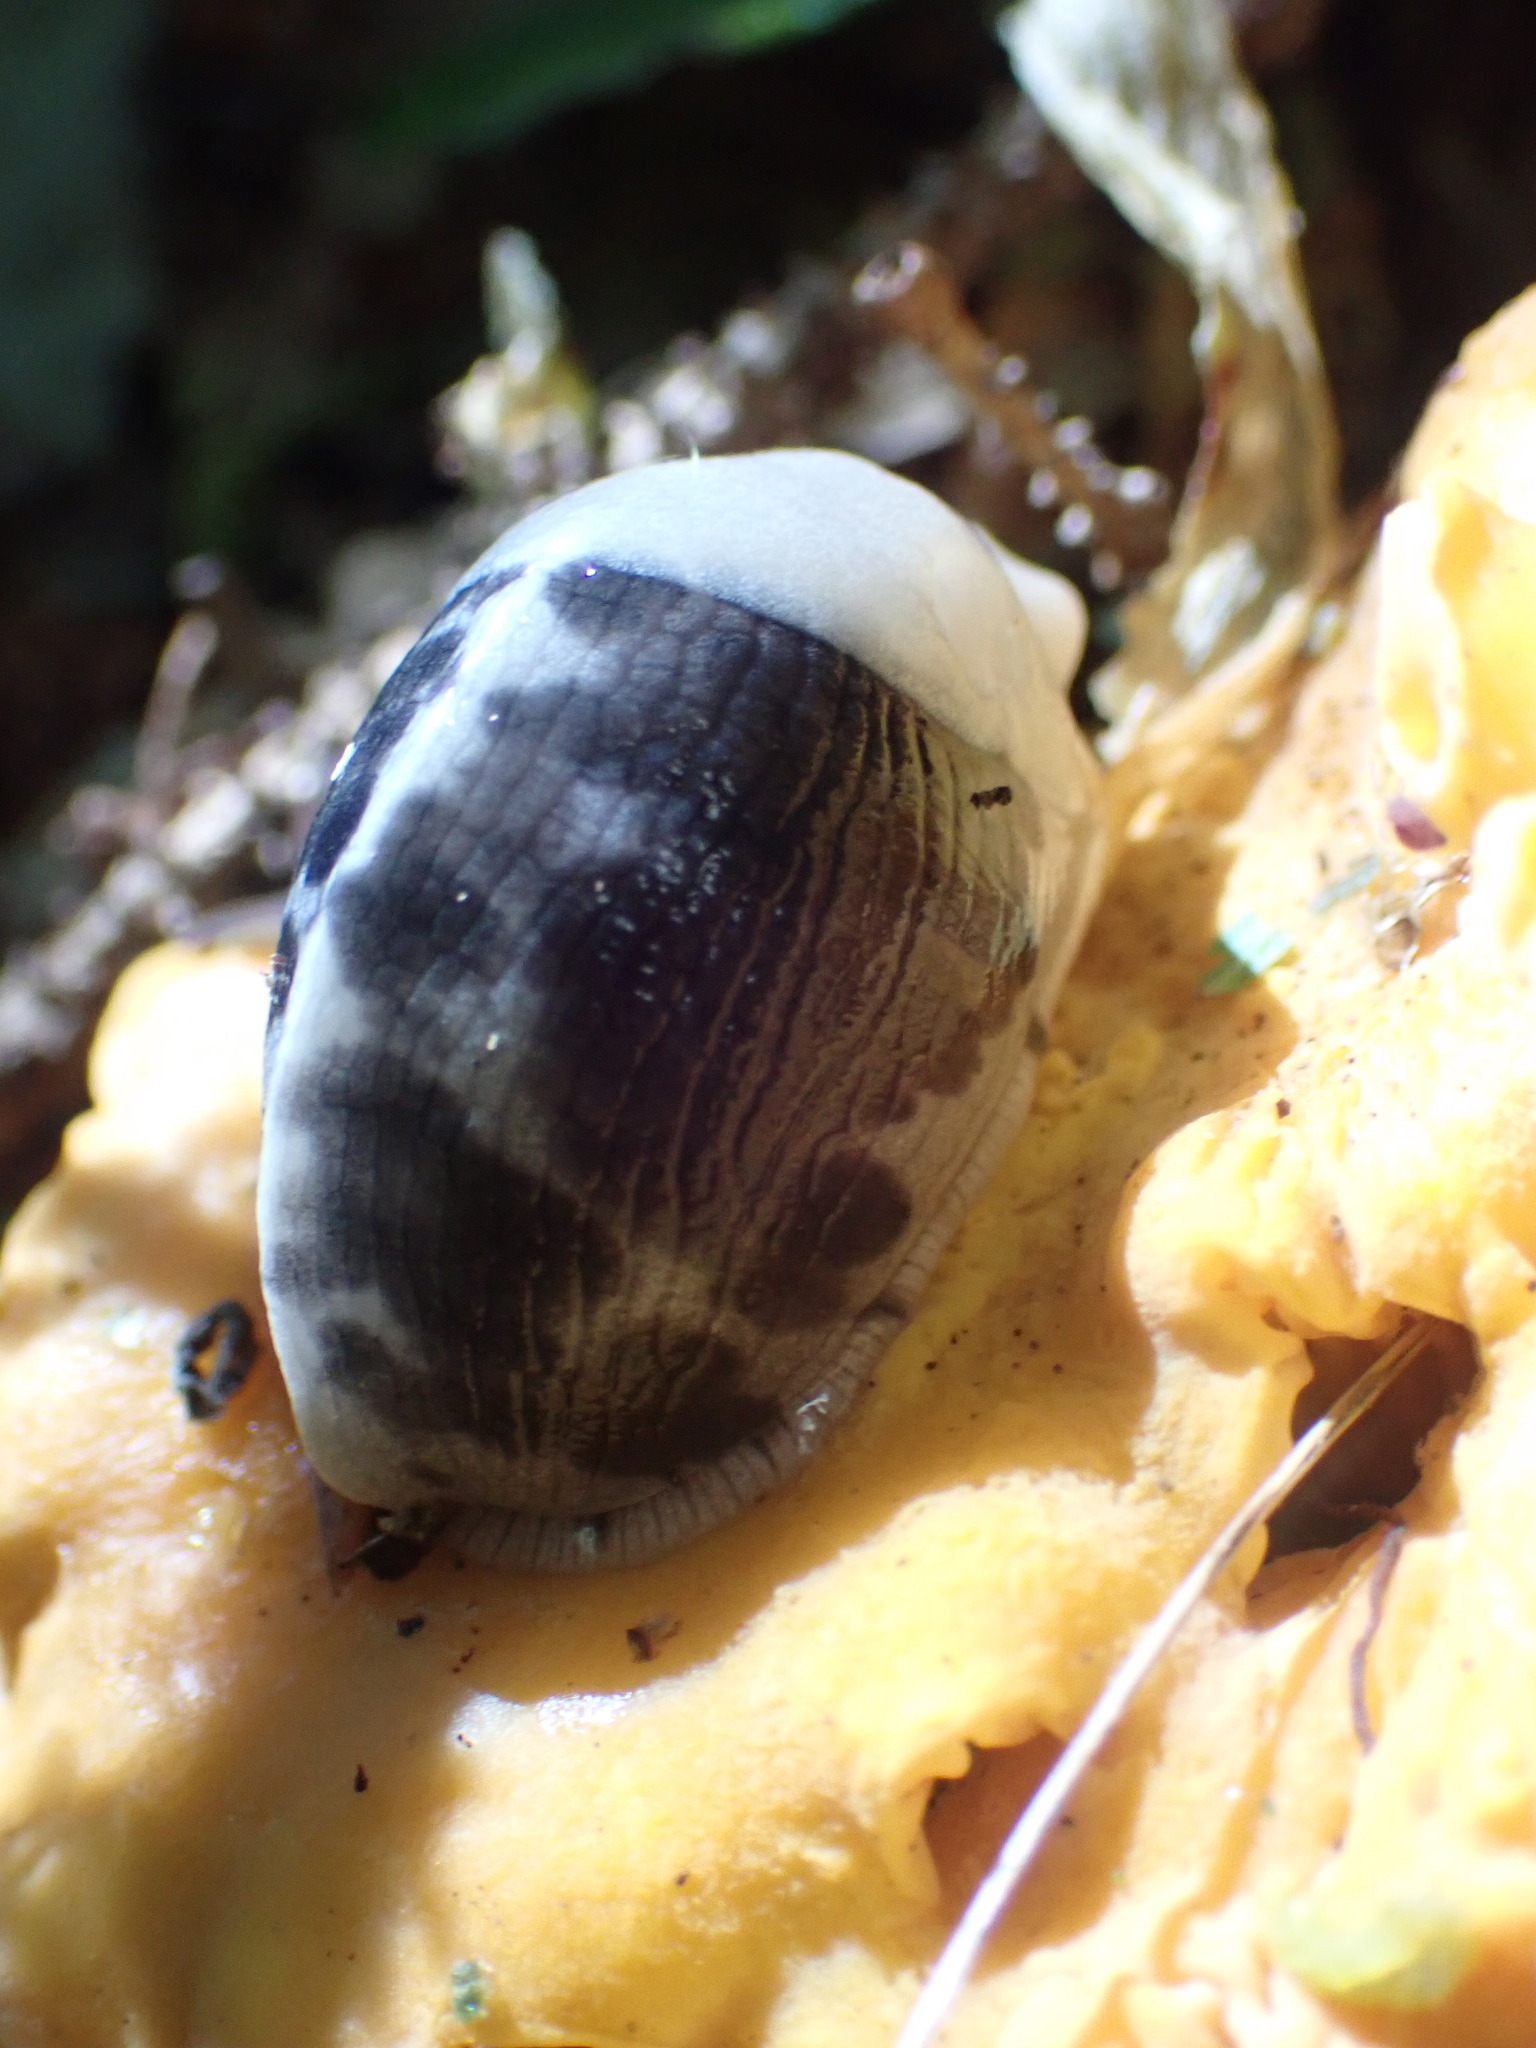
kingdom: Animalia
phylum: Mollusca
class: Gastropoda
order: Stylommatophora
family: Ariolimacidae
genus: Ariolimax
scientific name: Ariolimax columbianus
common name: Pacific banana slug
